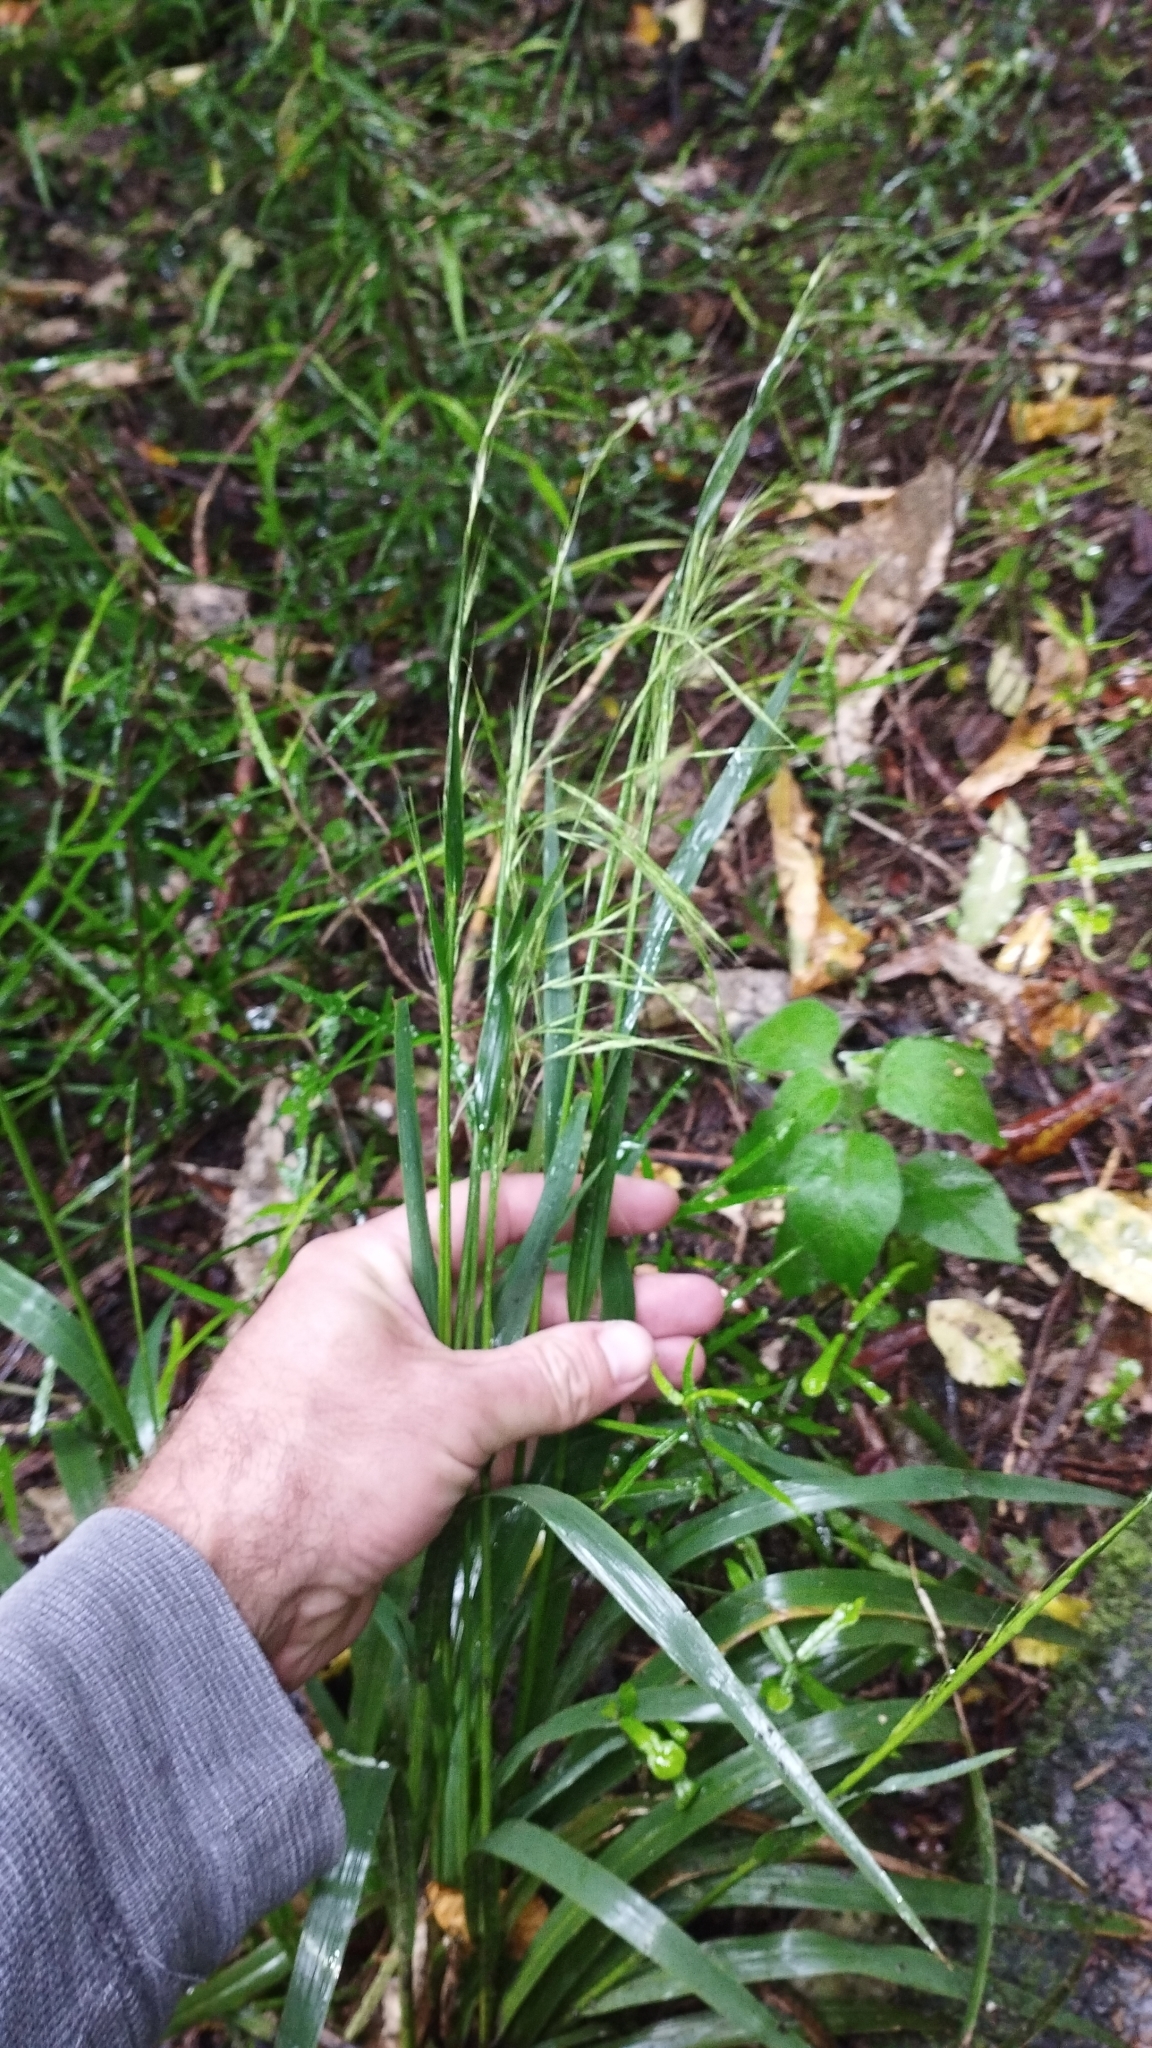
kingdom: Plantae
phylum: Tracheophyta
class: Liliopsida
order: Poales
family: Poaceae
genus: Ehrharta
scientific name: Ehrharta diplax
